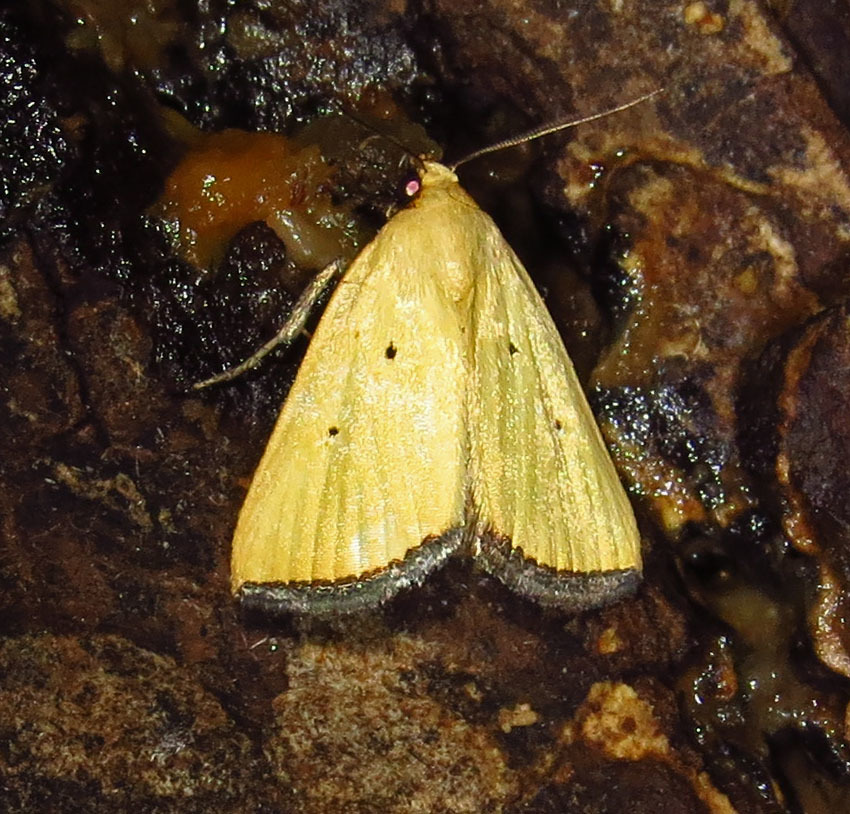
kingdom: Animalia
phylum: Arthropoda
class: Insecta
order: Lepidoptera
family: Noctuidae
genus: Marimatha
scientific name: Marimatha nigrofimbria
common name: Black-bordered lemon moth
